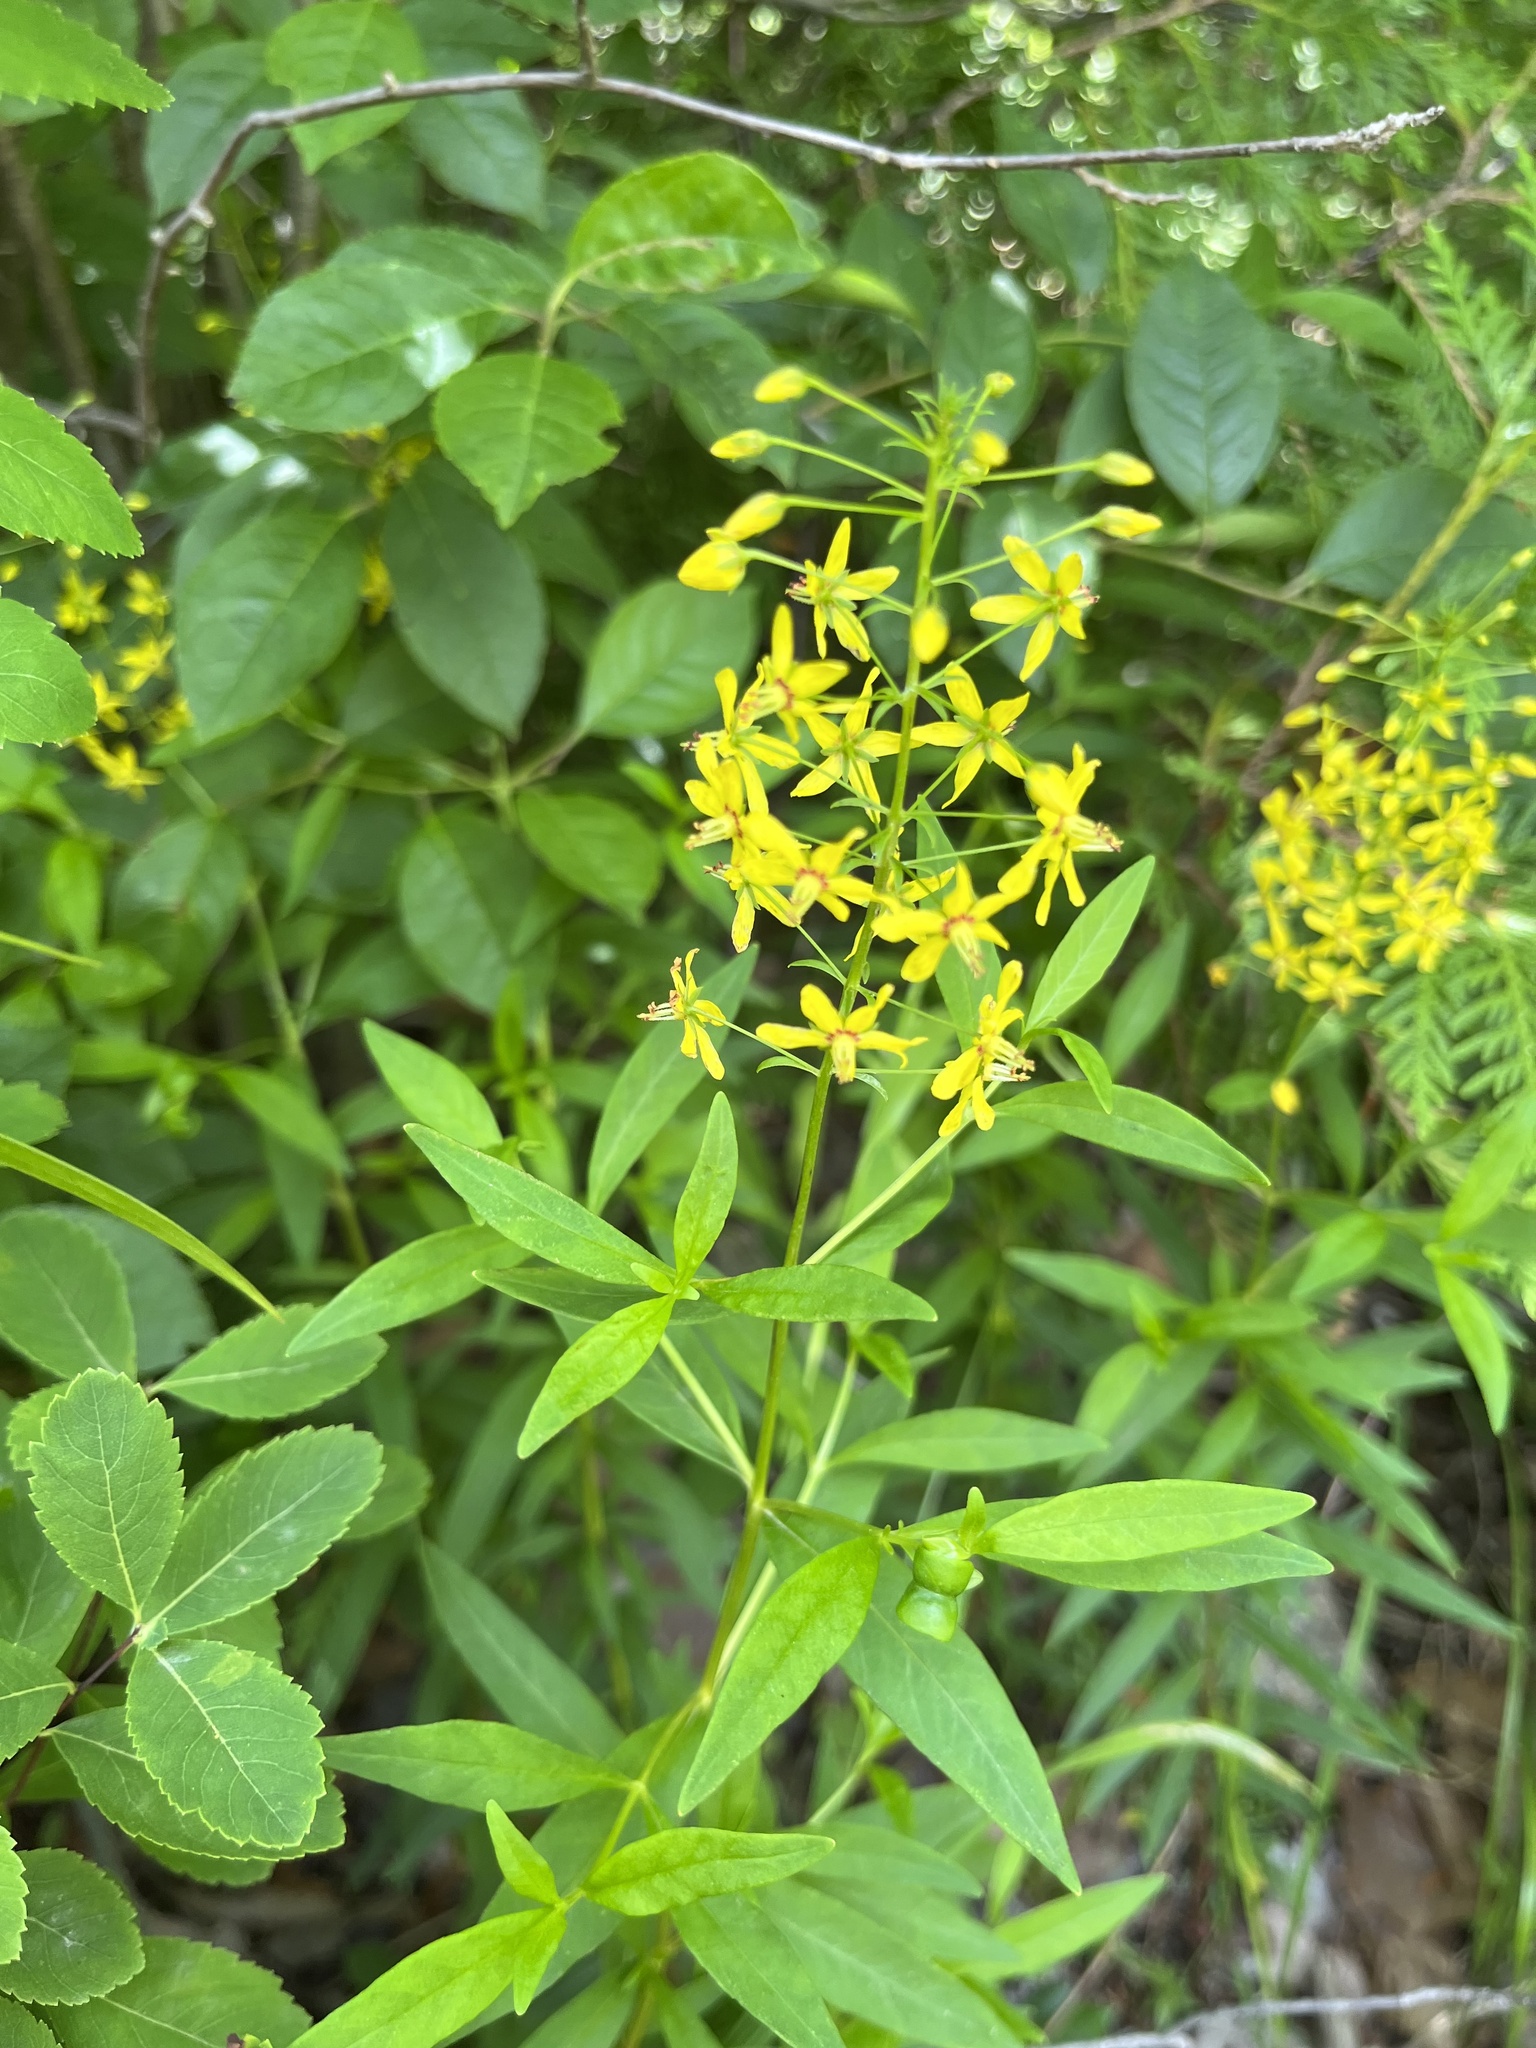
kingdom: Plantae
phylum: Tracheophyta
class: Magnoliopsida
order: Ericales
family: Primulaceae
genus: Lysimachia
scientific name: Lysimachia terrestris
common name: Lake loosestrife
